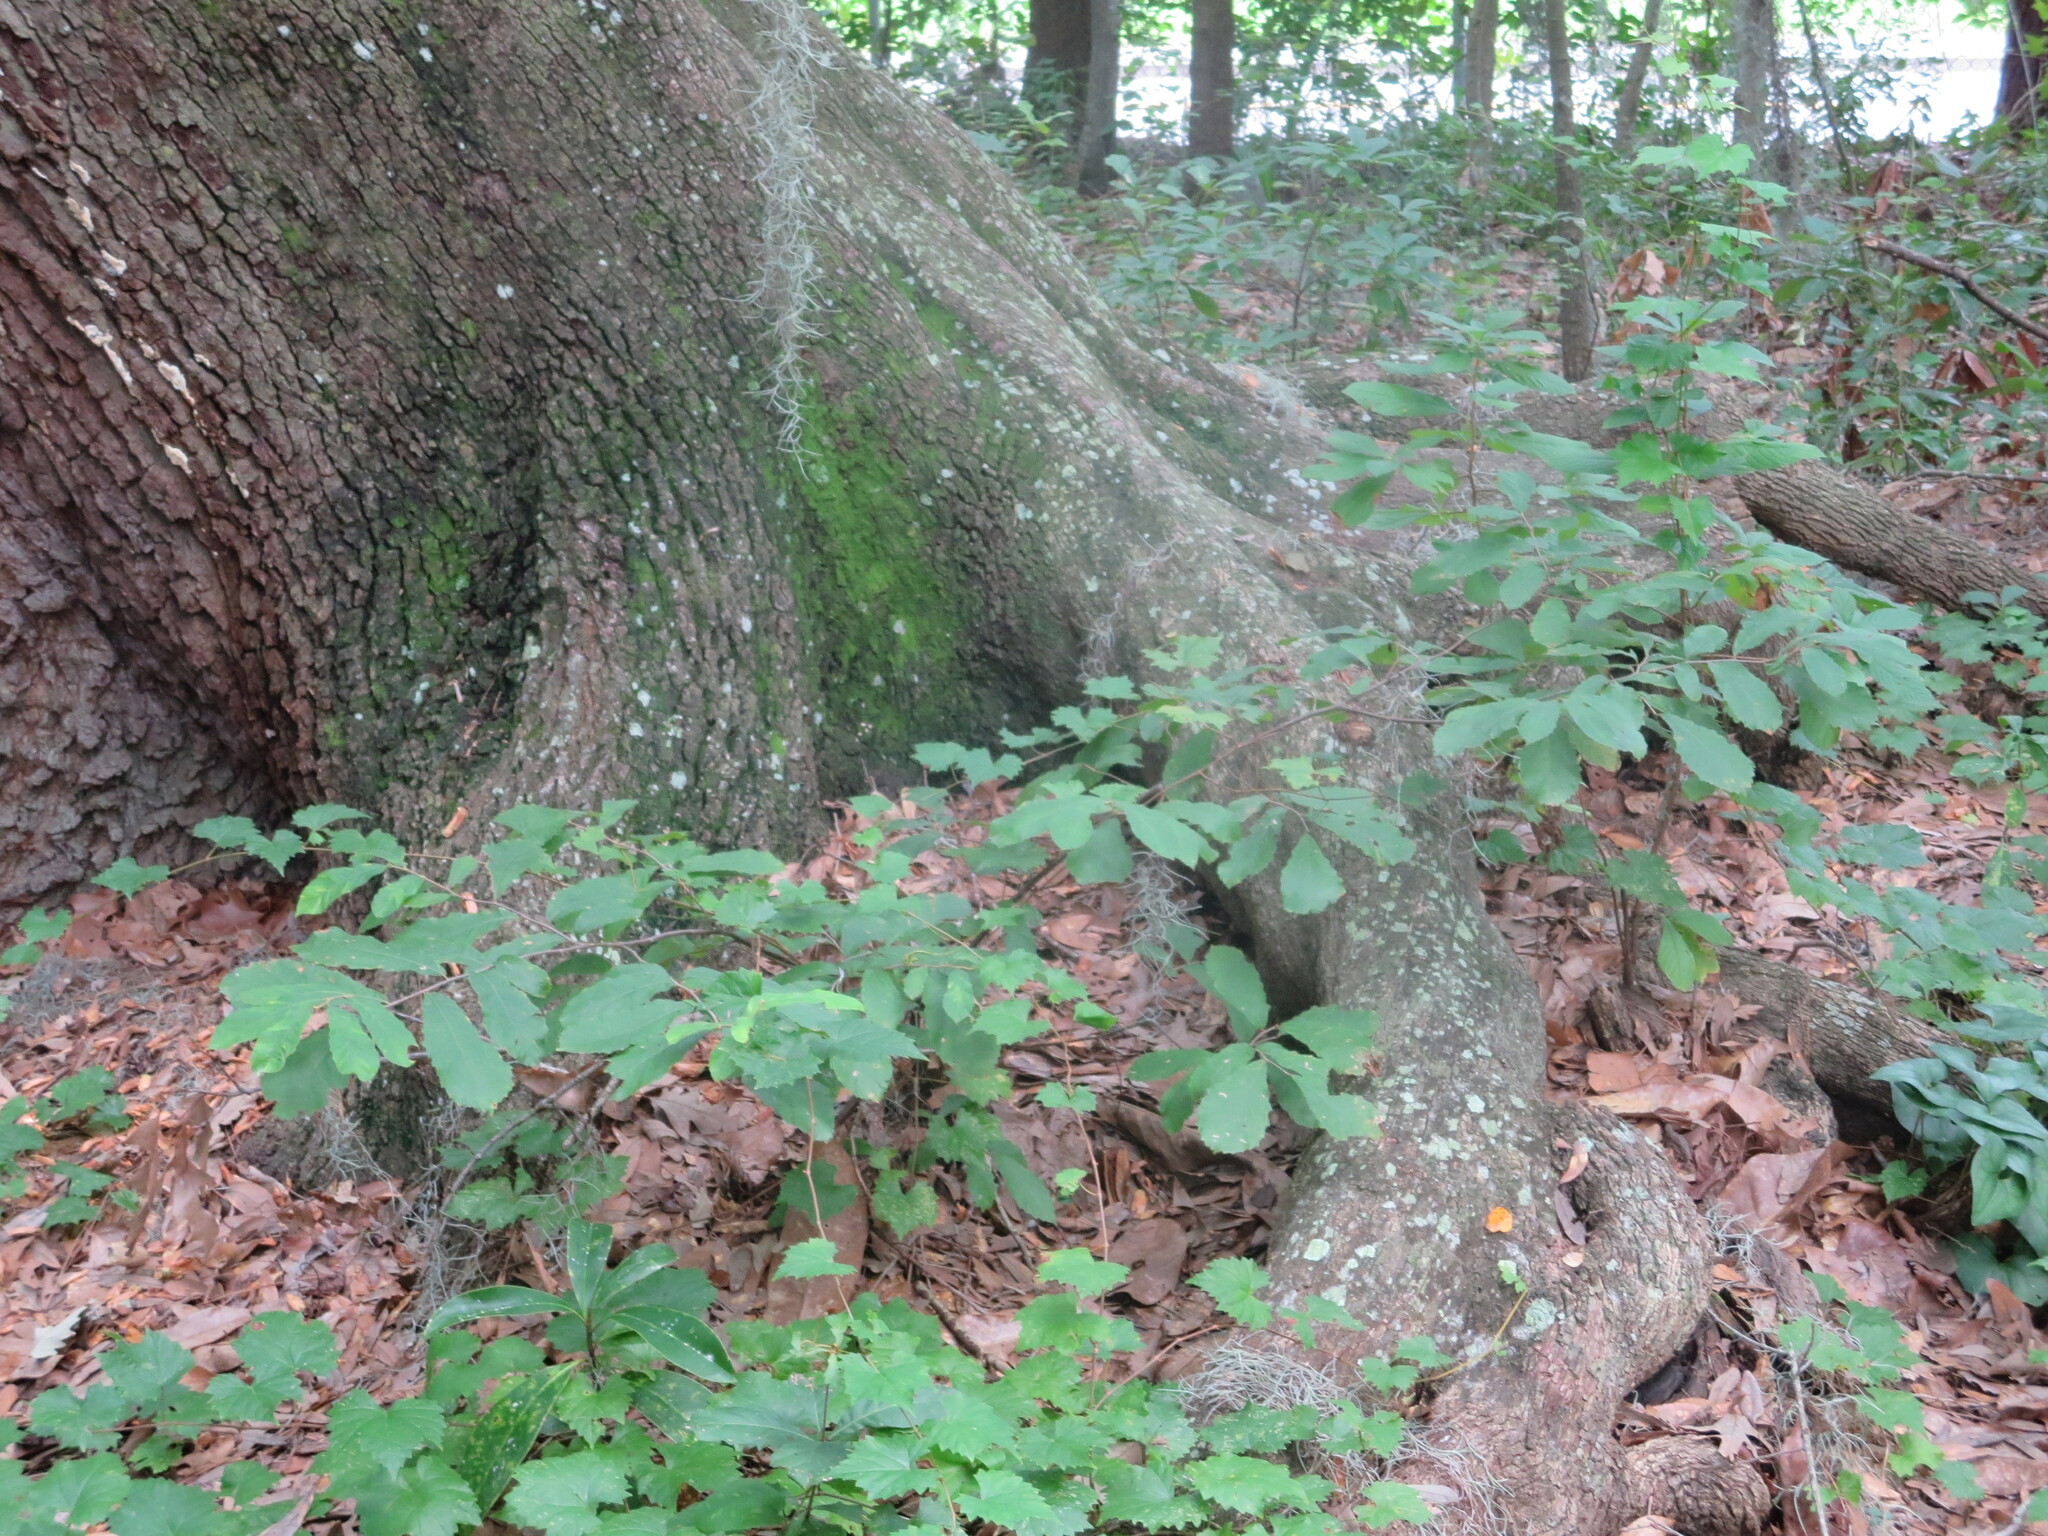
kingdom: Plantae
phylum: Tracheophyta
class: Magnoliopsida
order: Fagales
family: Fagaceae
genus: Castanea
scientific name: Castanea pumila
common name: Chinkapin
